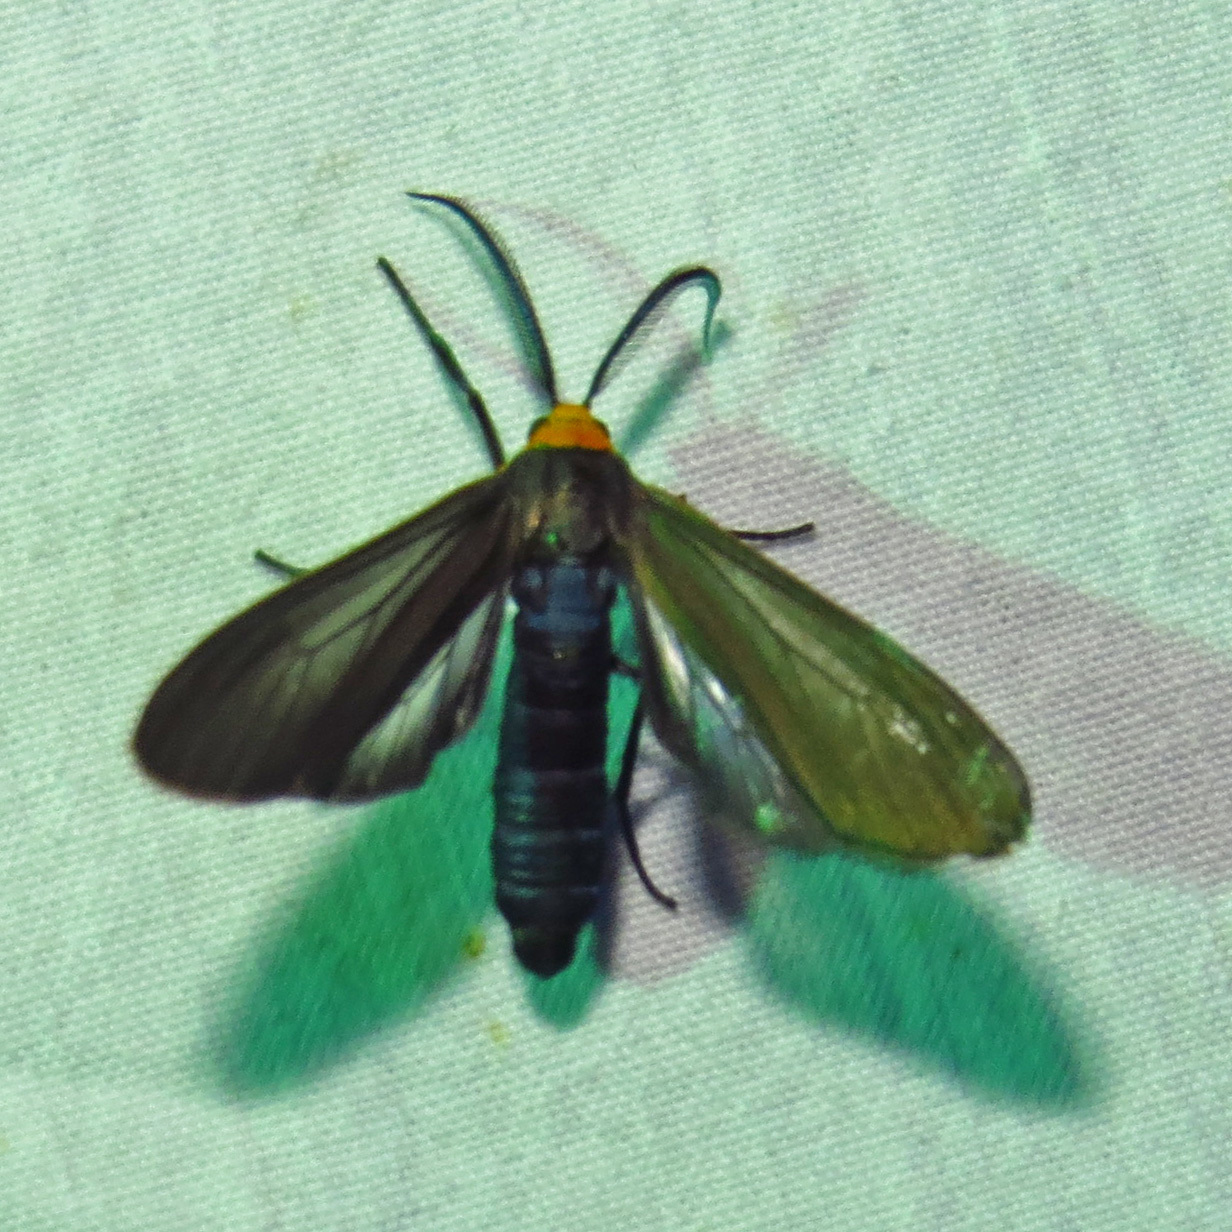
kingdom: Animalia
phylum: Arthropoda
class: Insecta
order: Lepidoptera
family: Erebidae
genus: Cisseps
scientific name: Cisseps fulvicollis
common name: Yellow-collared scape moth
